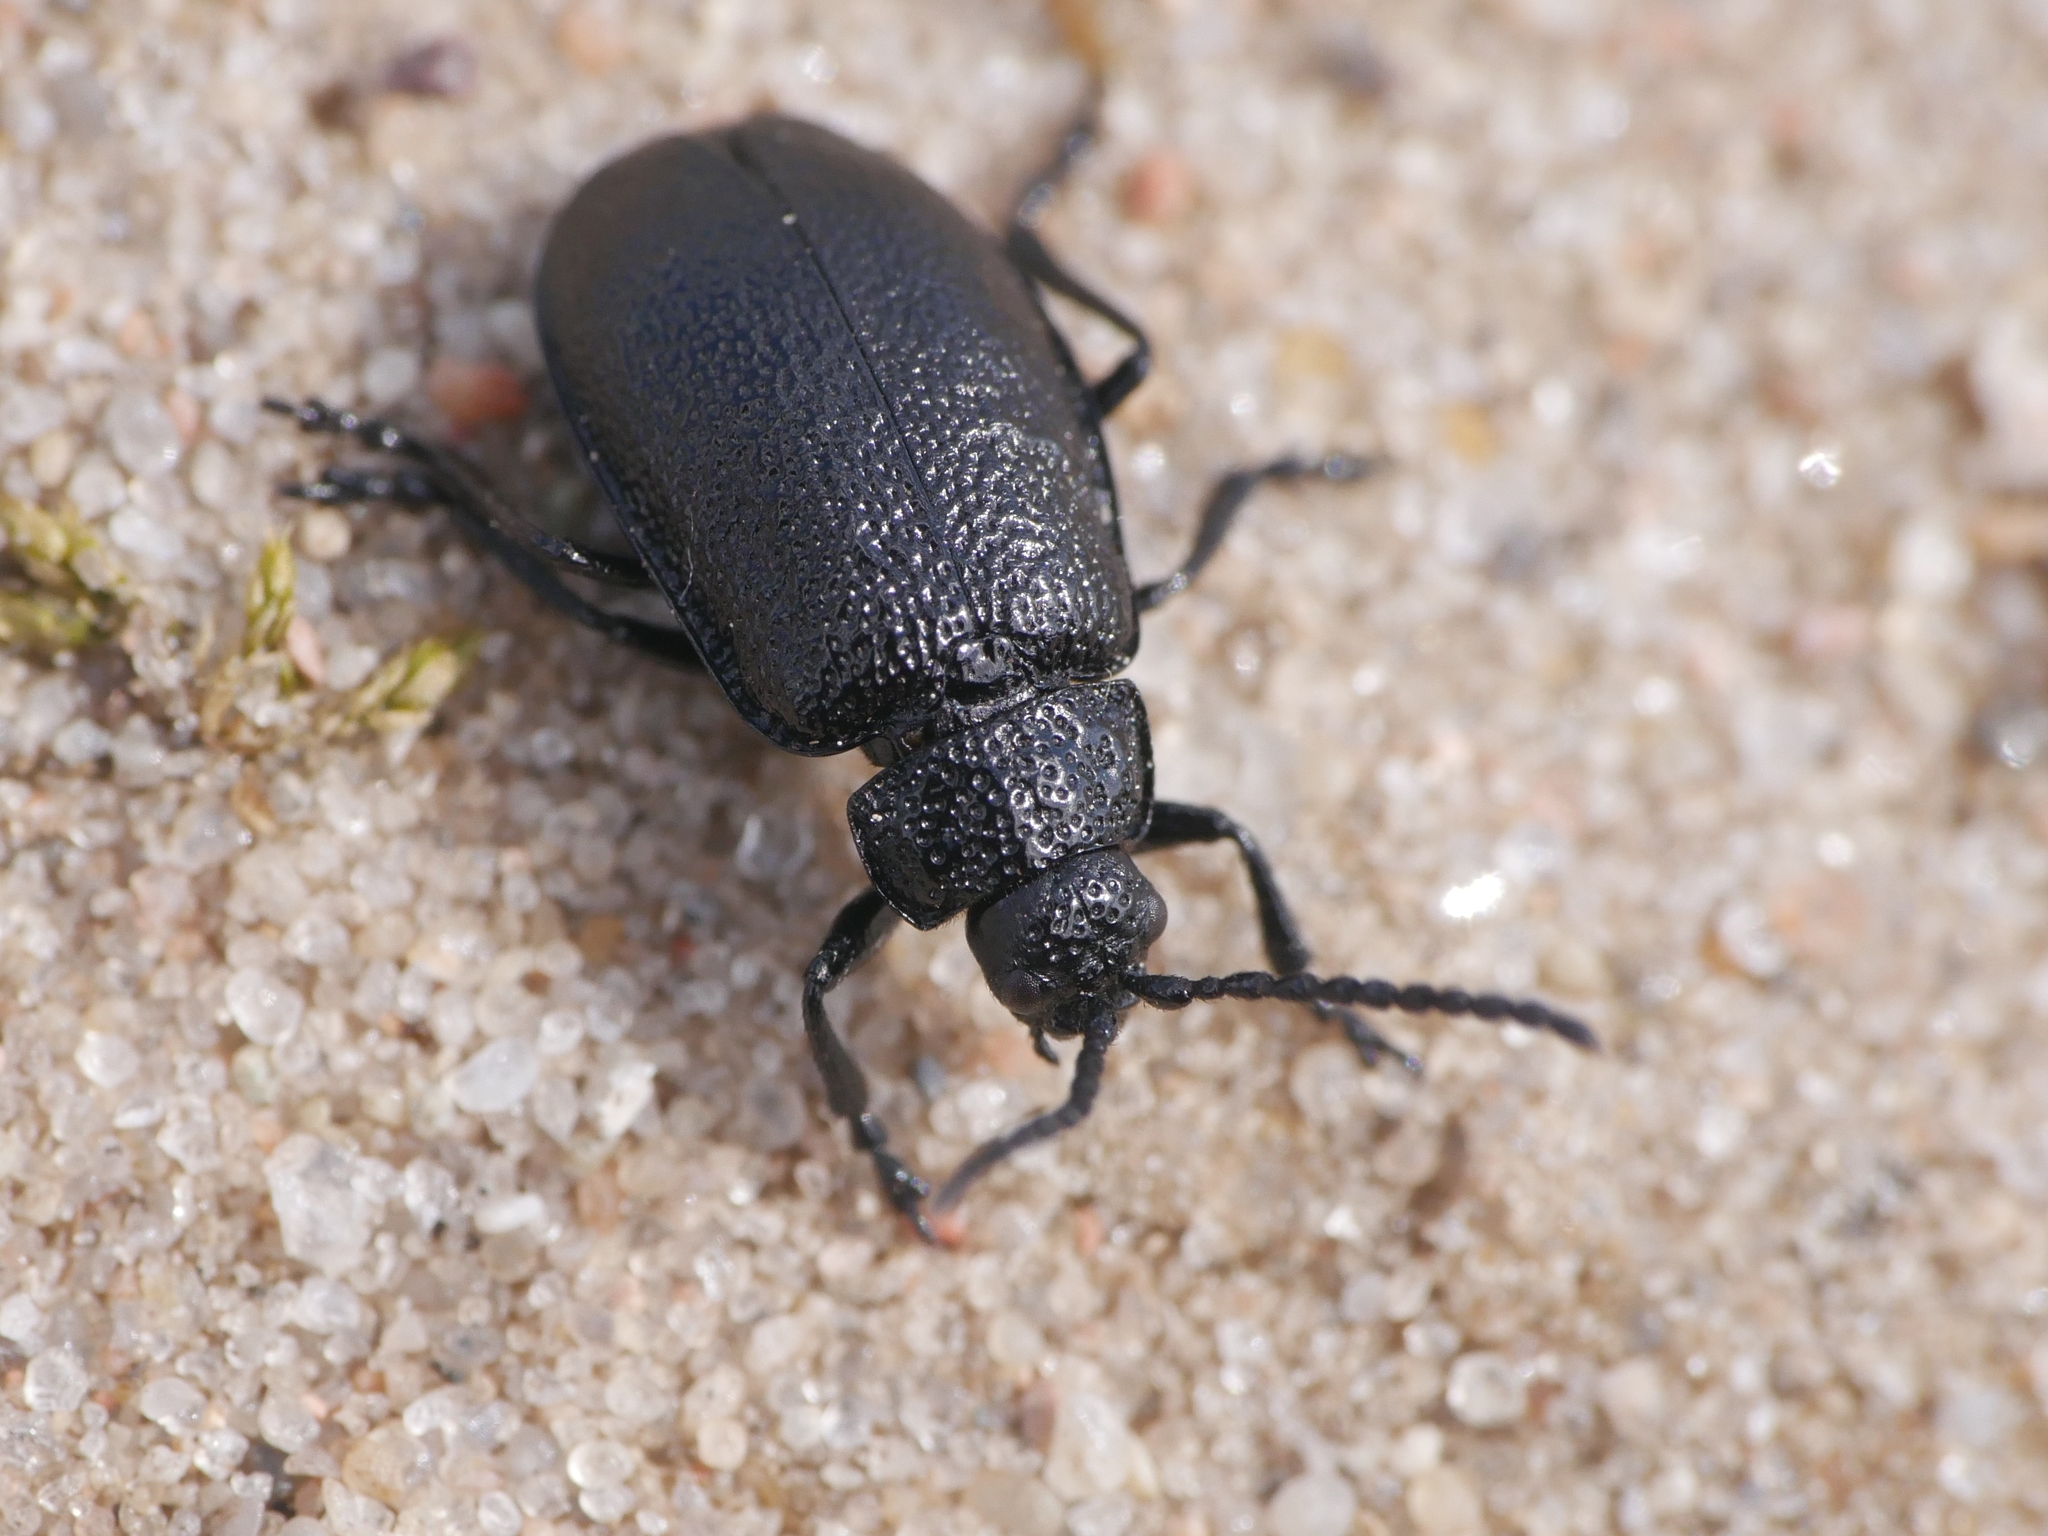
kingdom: Animalia
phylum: Arthropoda
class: Insecta
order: Coleoptera
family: Chrysomelidae
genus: Galeruca
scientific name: Galeruca tanaceti
